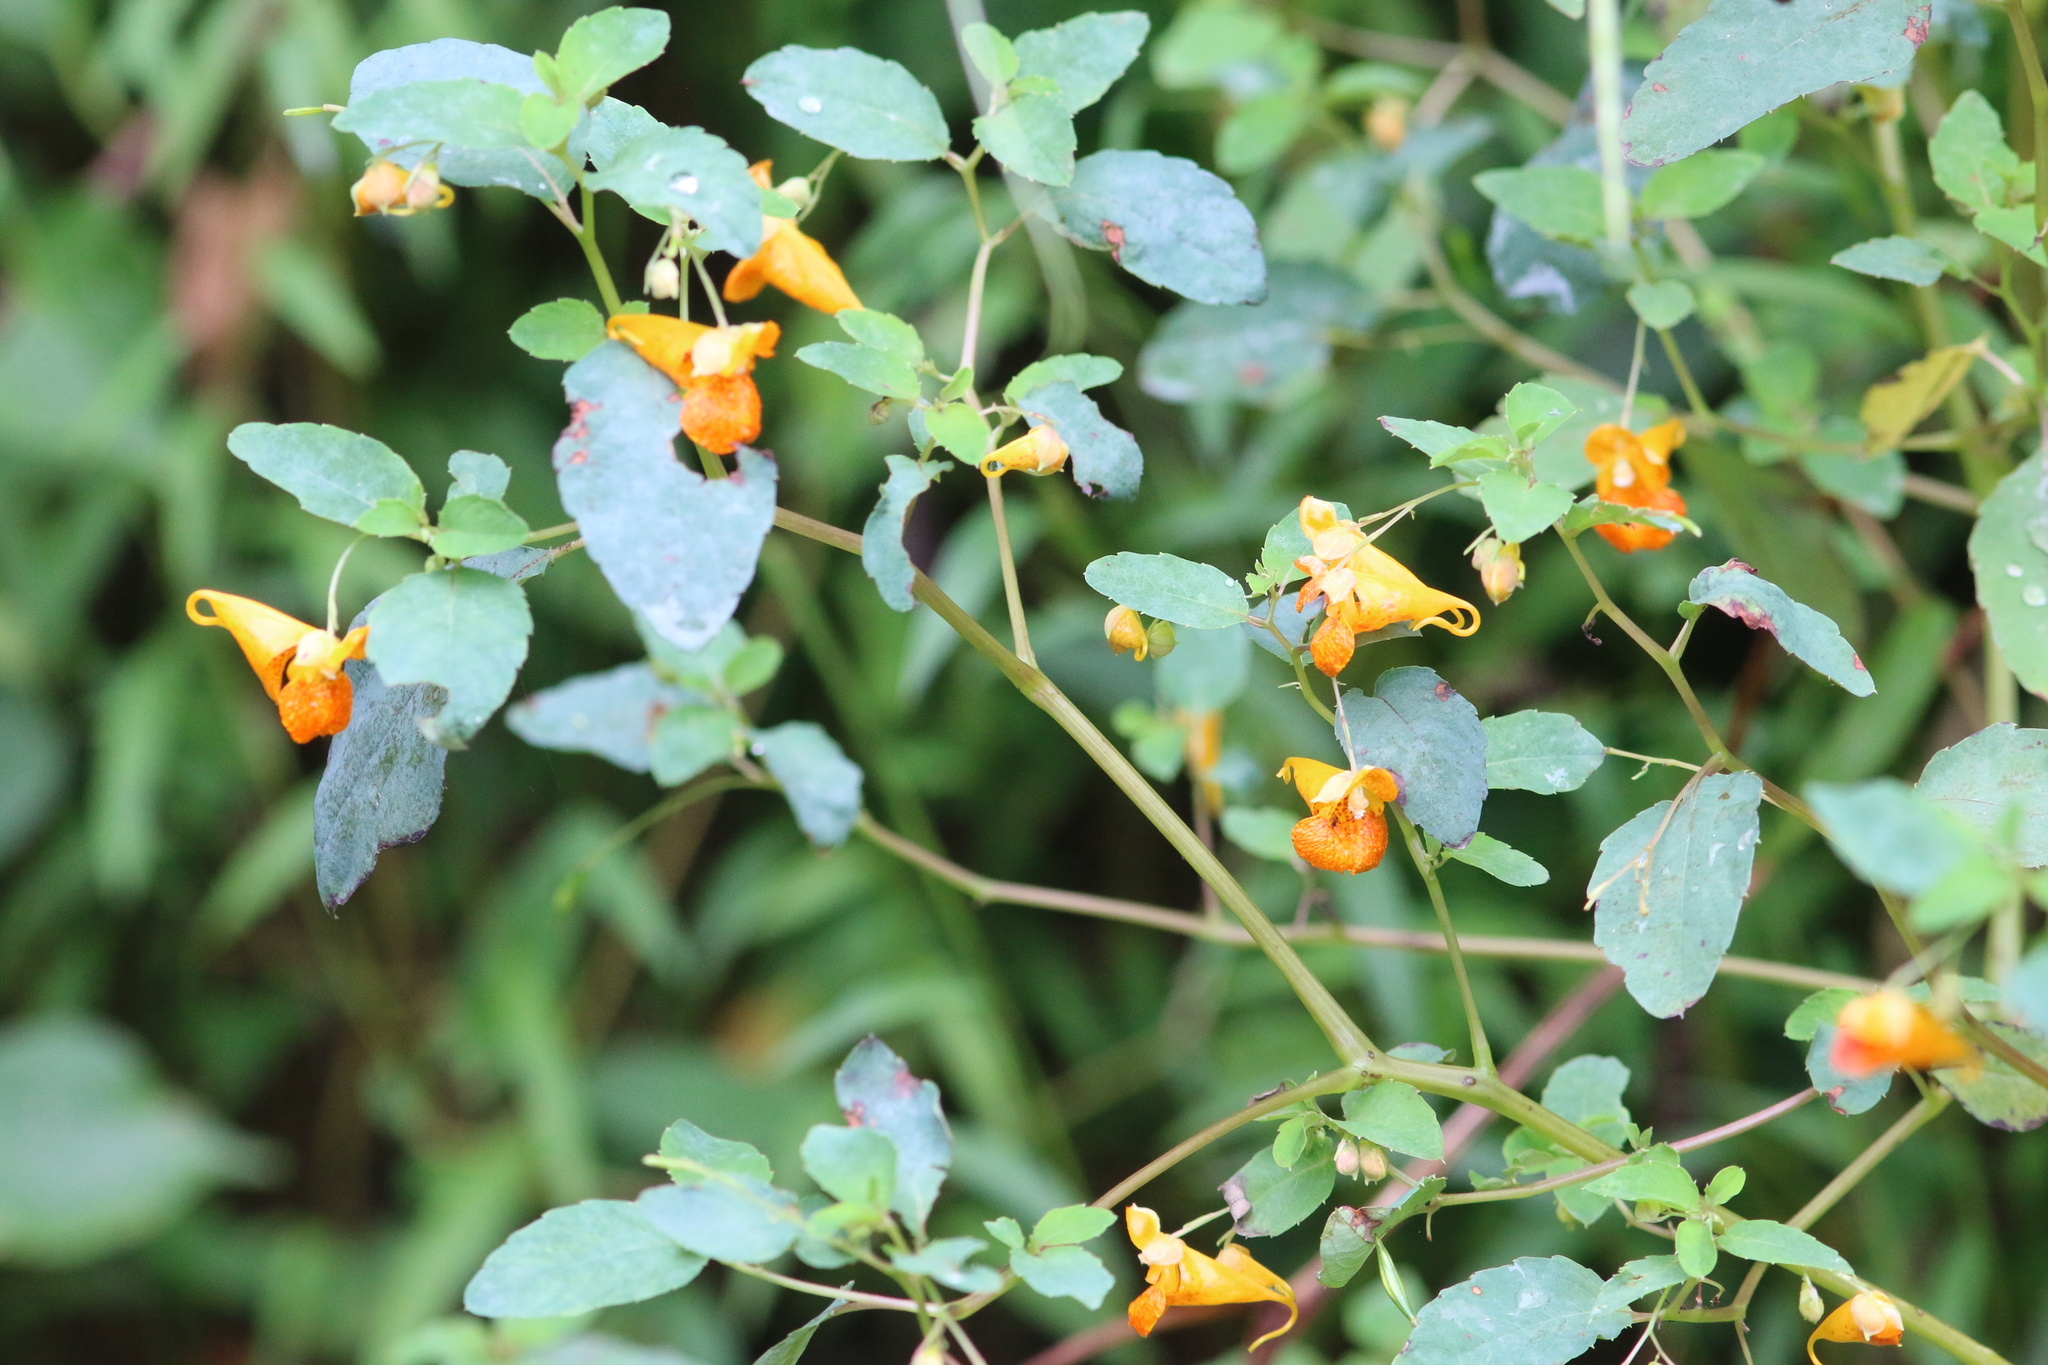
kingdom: Plantae
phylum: Tracheophyta
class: Magnoliopsida
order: Ericales
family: Balsaminaceae
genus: Impatiens
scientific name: Impatiens capensis
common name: Orange balsam
